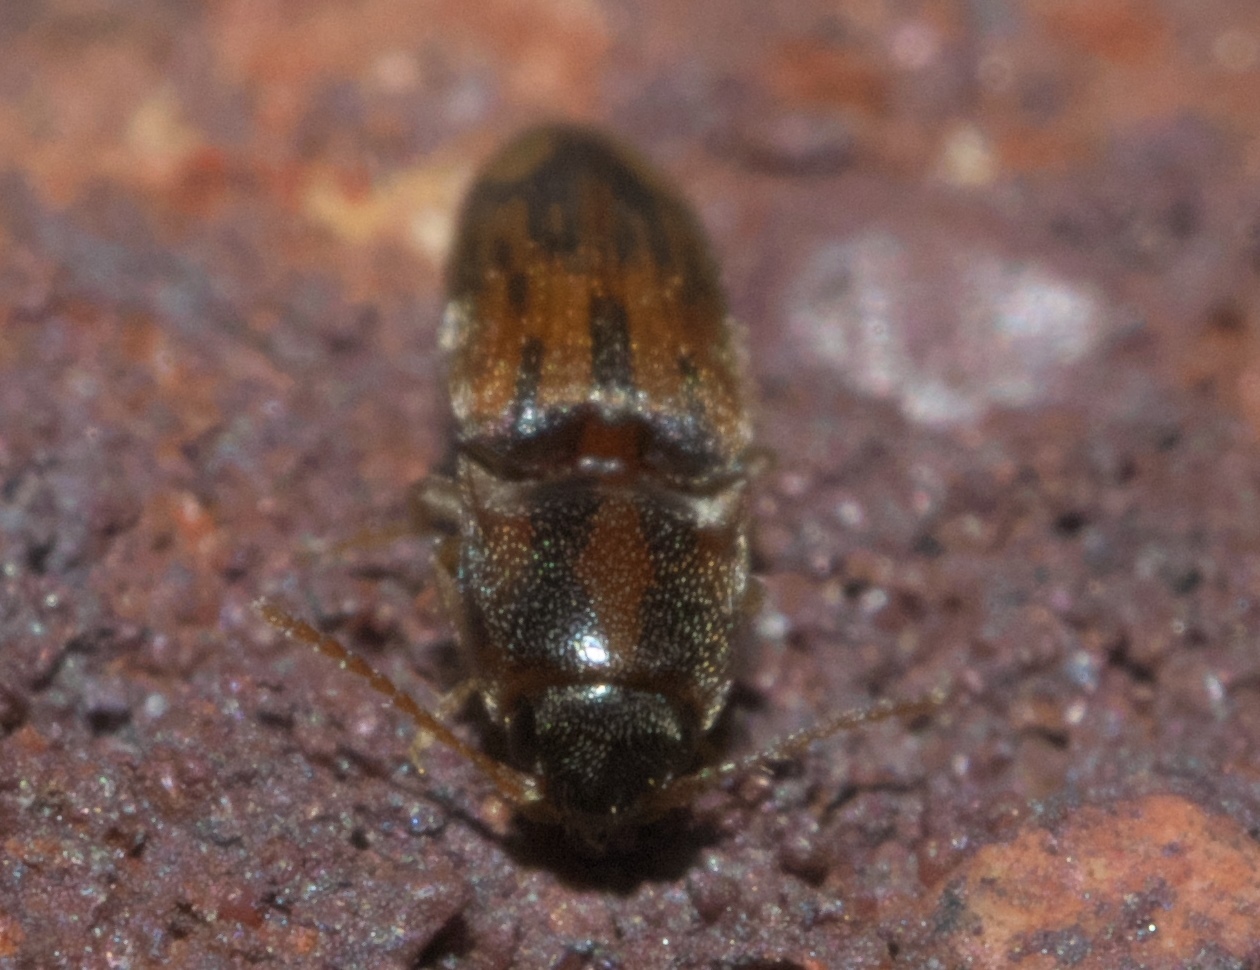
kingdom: Animalia
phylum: Arthropoda
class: Insecta
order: Coleoptera
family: Elateridae
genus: Monocrepidius
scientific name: Monocrepidius bellus
